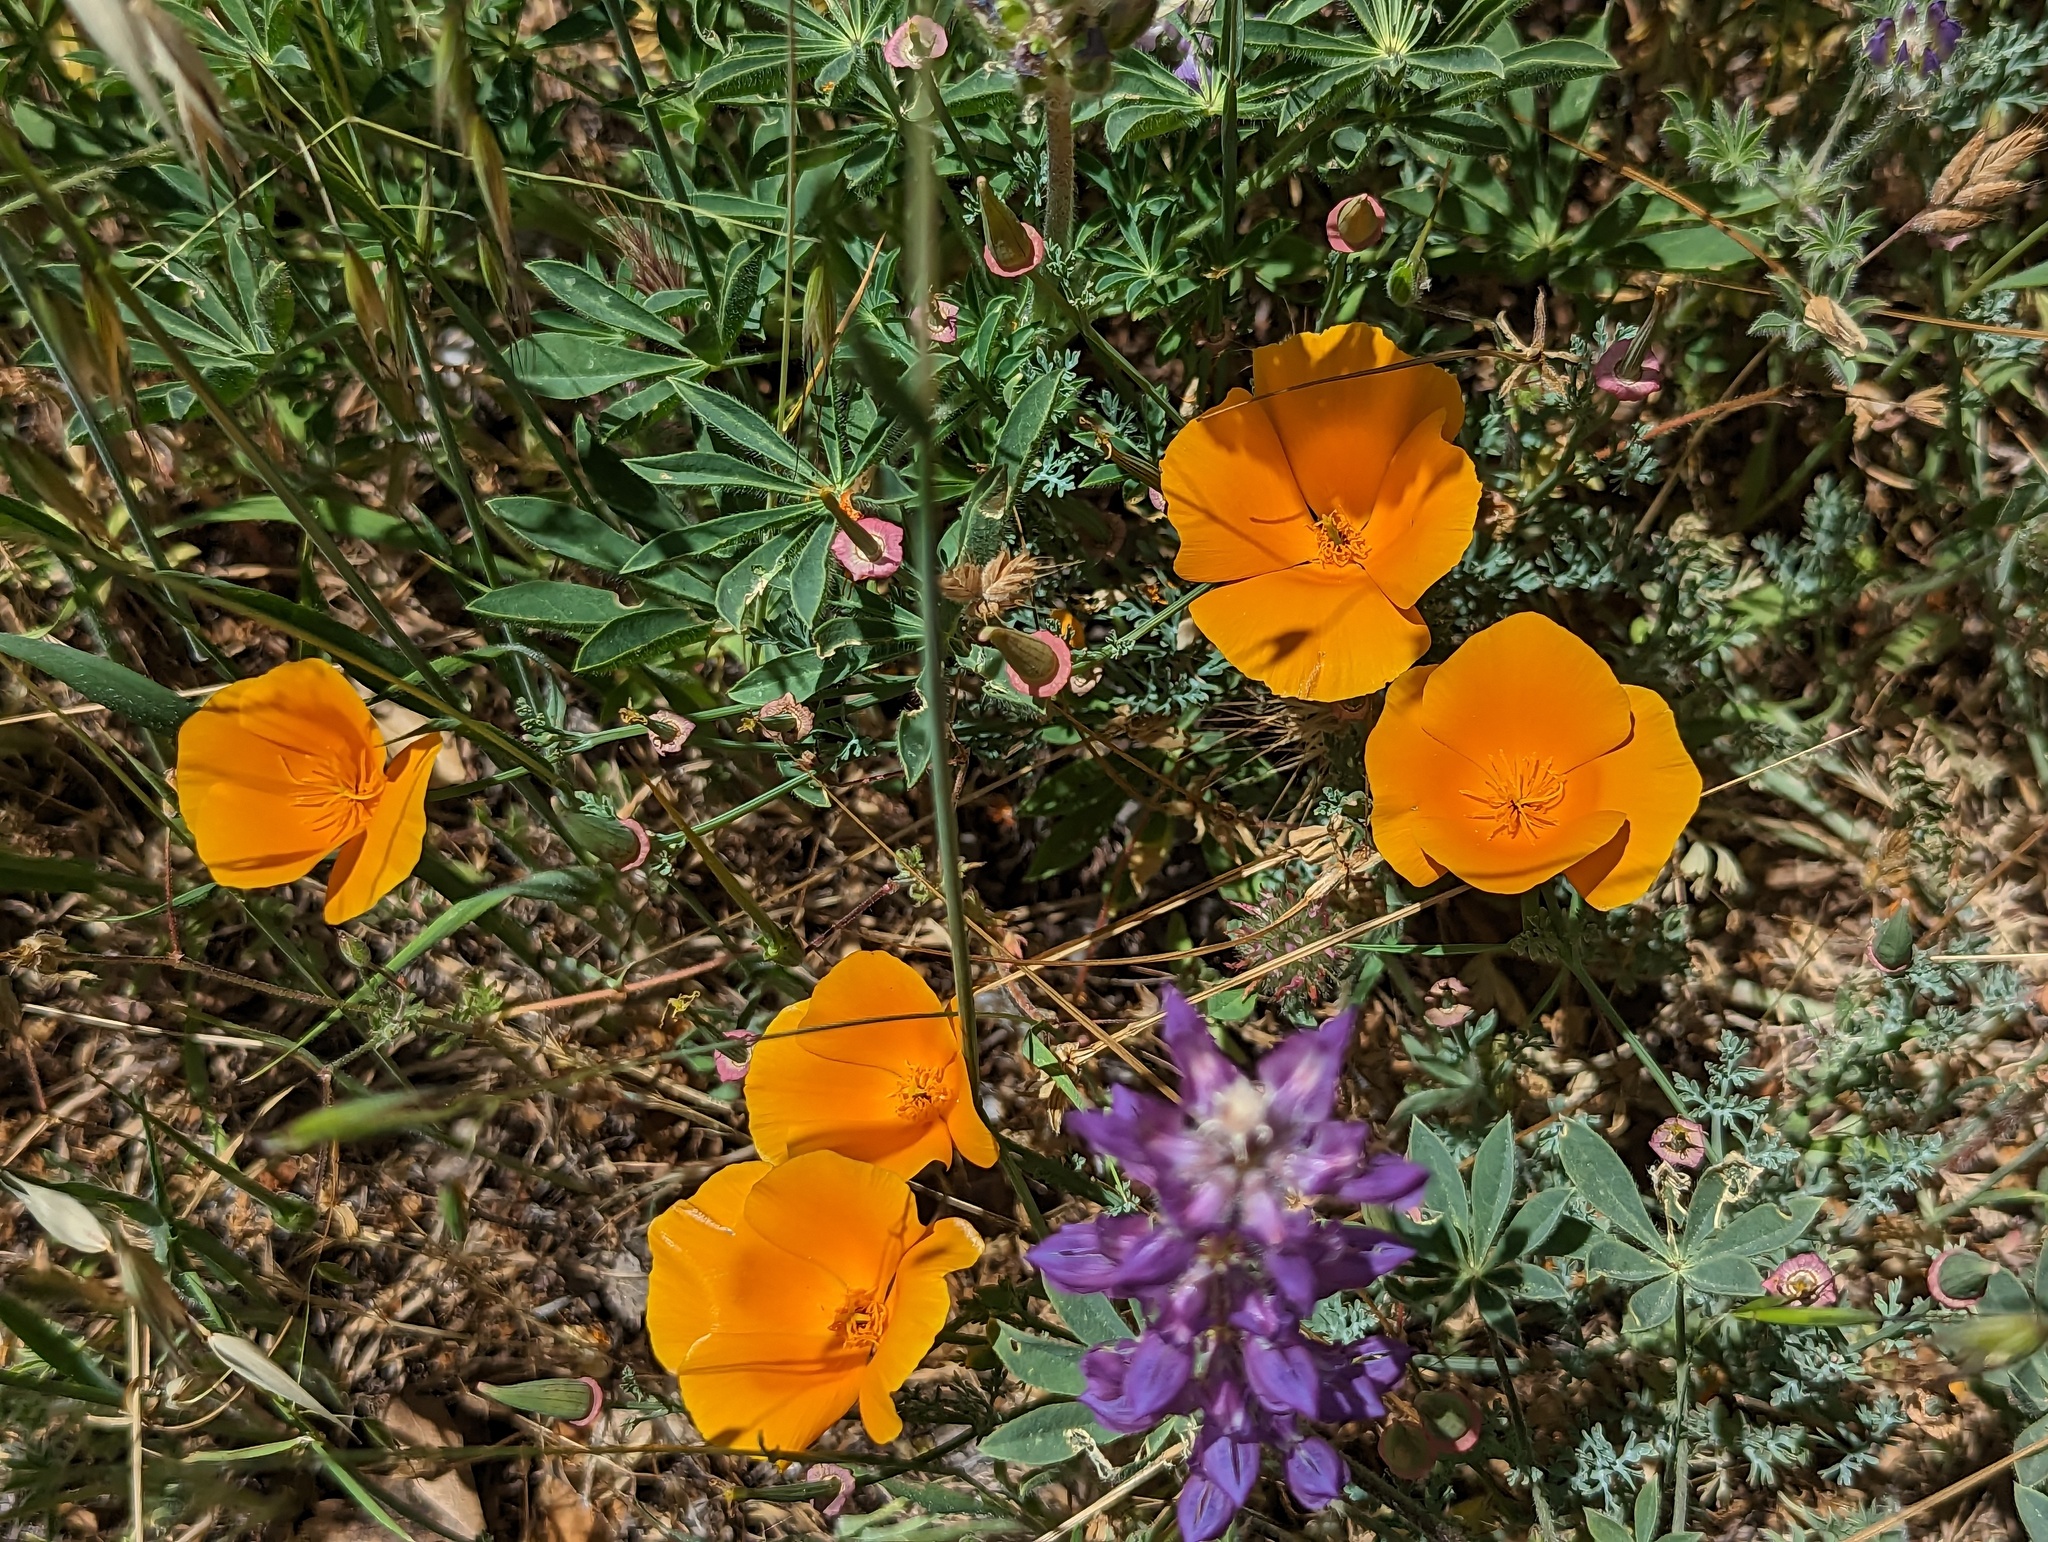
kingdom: Plantae
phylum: Tracheophyta
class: Magnoliopsida
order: Ranunculales
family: Papaveraceae
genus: Eschscholzia
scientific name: Eschscholzia californica
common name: California poppy
